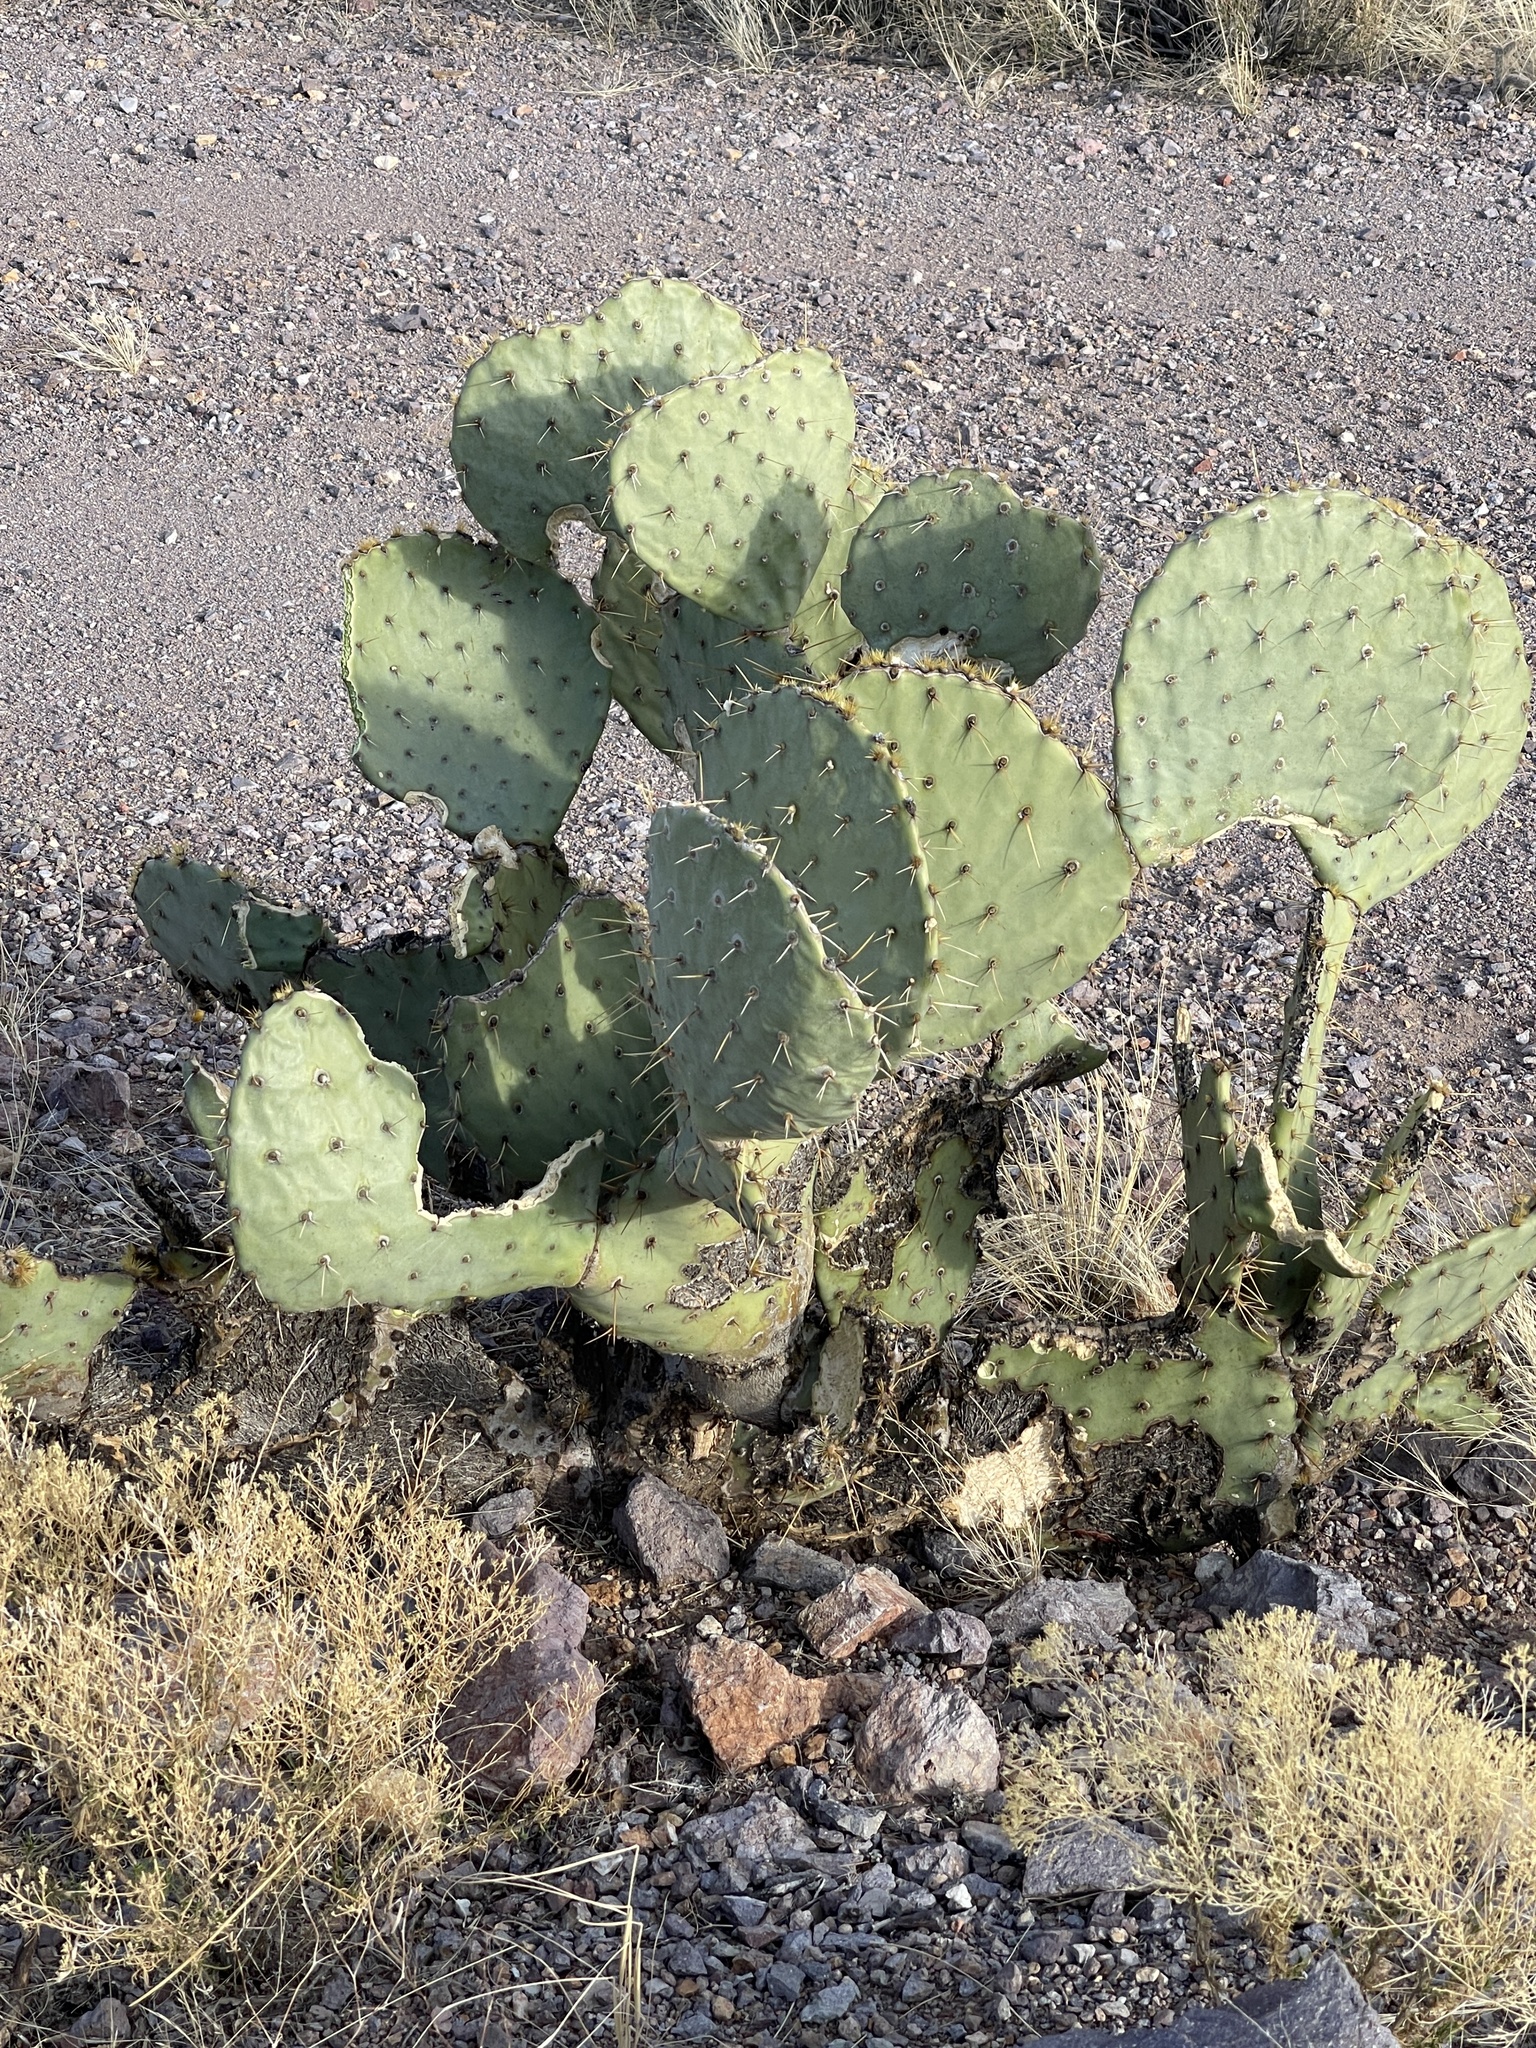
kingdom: Plantae
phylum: Tracheophyta
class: Magnoliopsida
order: Caryophyllales
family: Cactaceae
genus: Opuntia
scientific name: Opuntia engelmannii
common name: Cactus-apple
